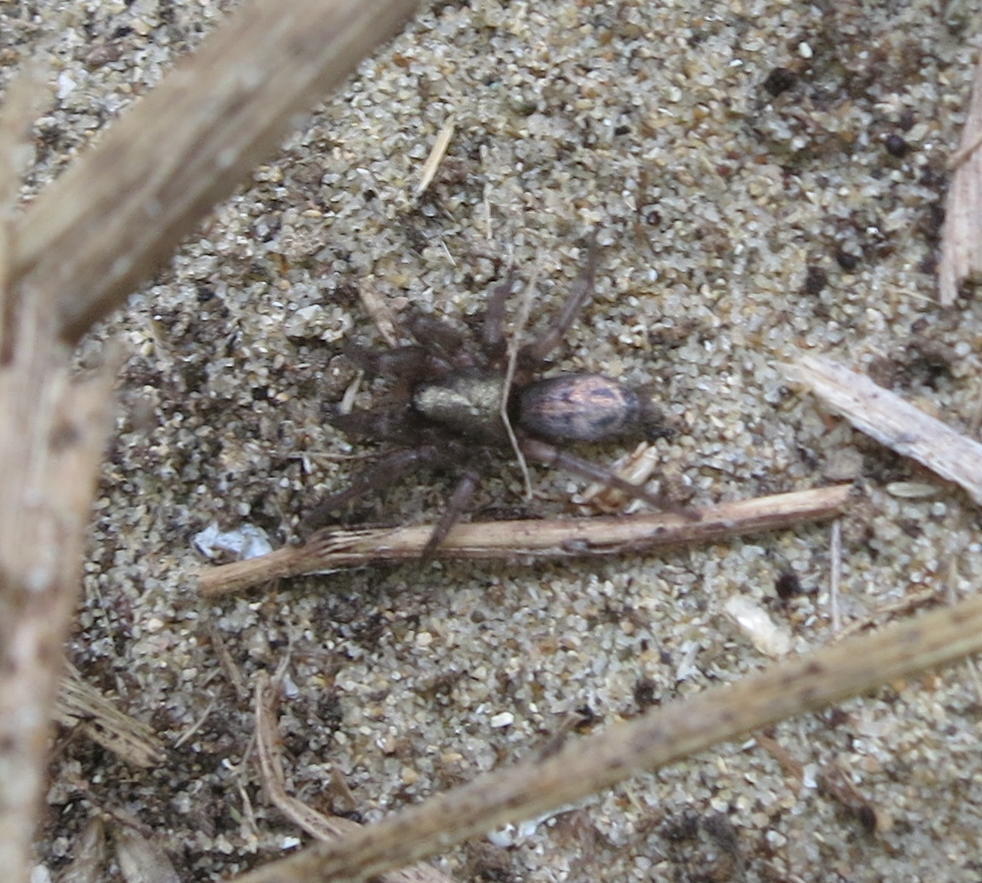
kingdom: Animalia
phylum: Arthropoda
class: Arachnida
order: Araneae
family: Gnaphosidae
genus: Scotophaeus
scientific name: Scotophaeus pretiosus
